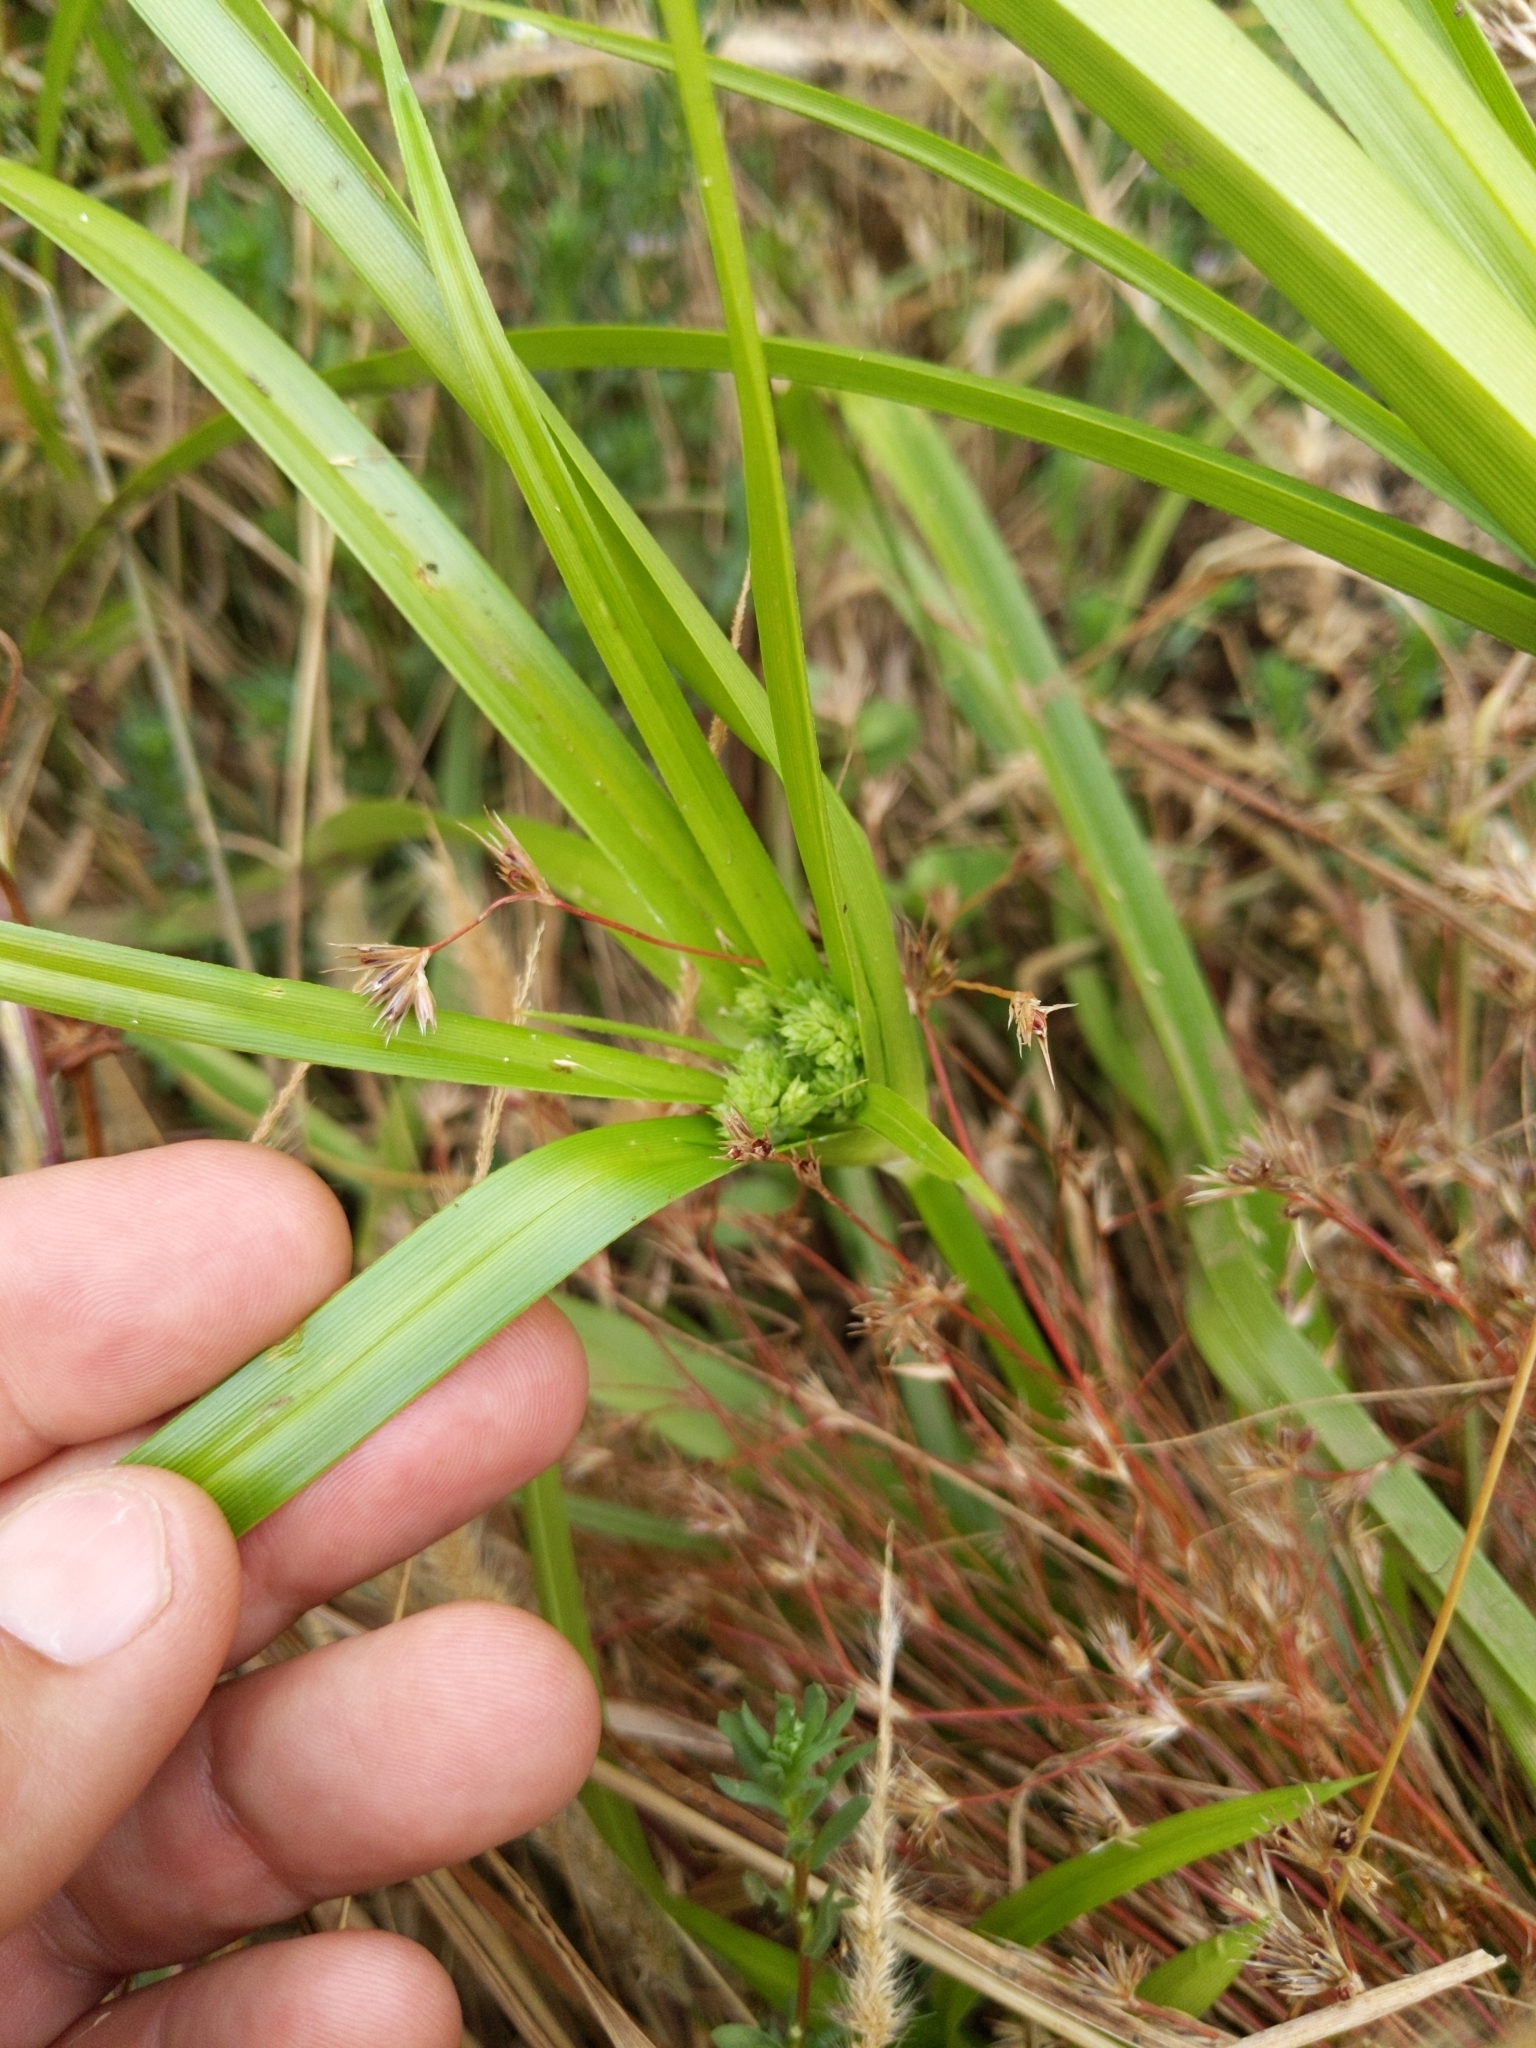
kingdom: Plantae
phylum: Tracheophyta
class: Liliopsida
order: Poales
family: Cyperaceae
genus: Cyperus
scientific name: Cyperus eragrostis
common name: Tall flatsedge
